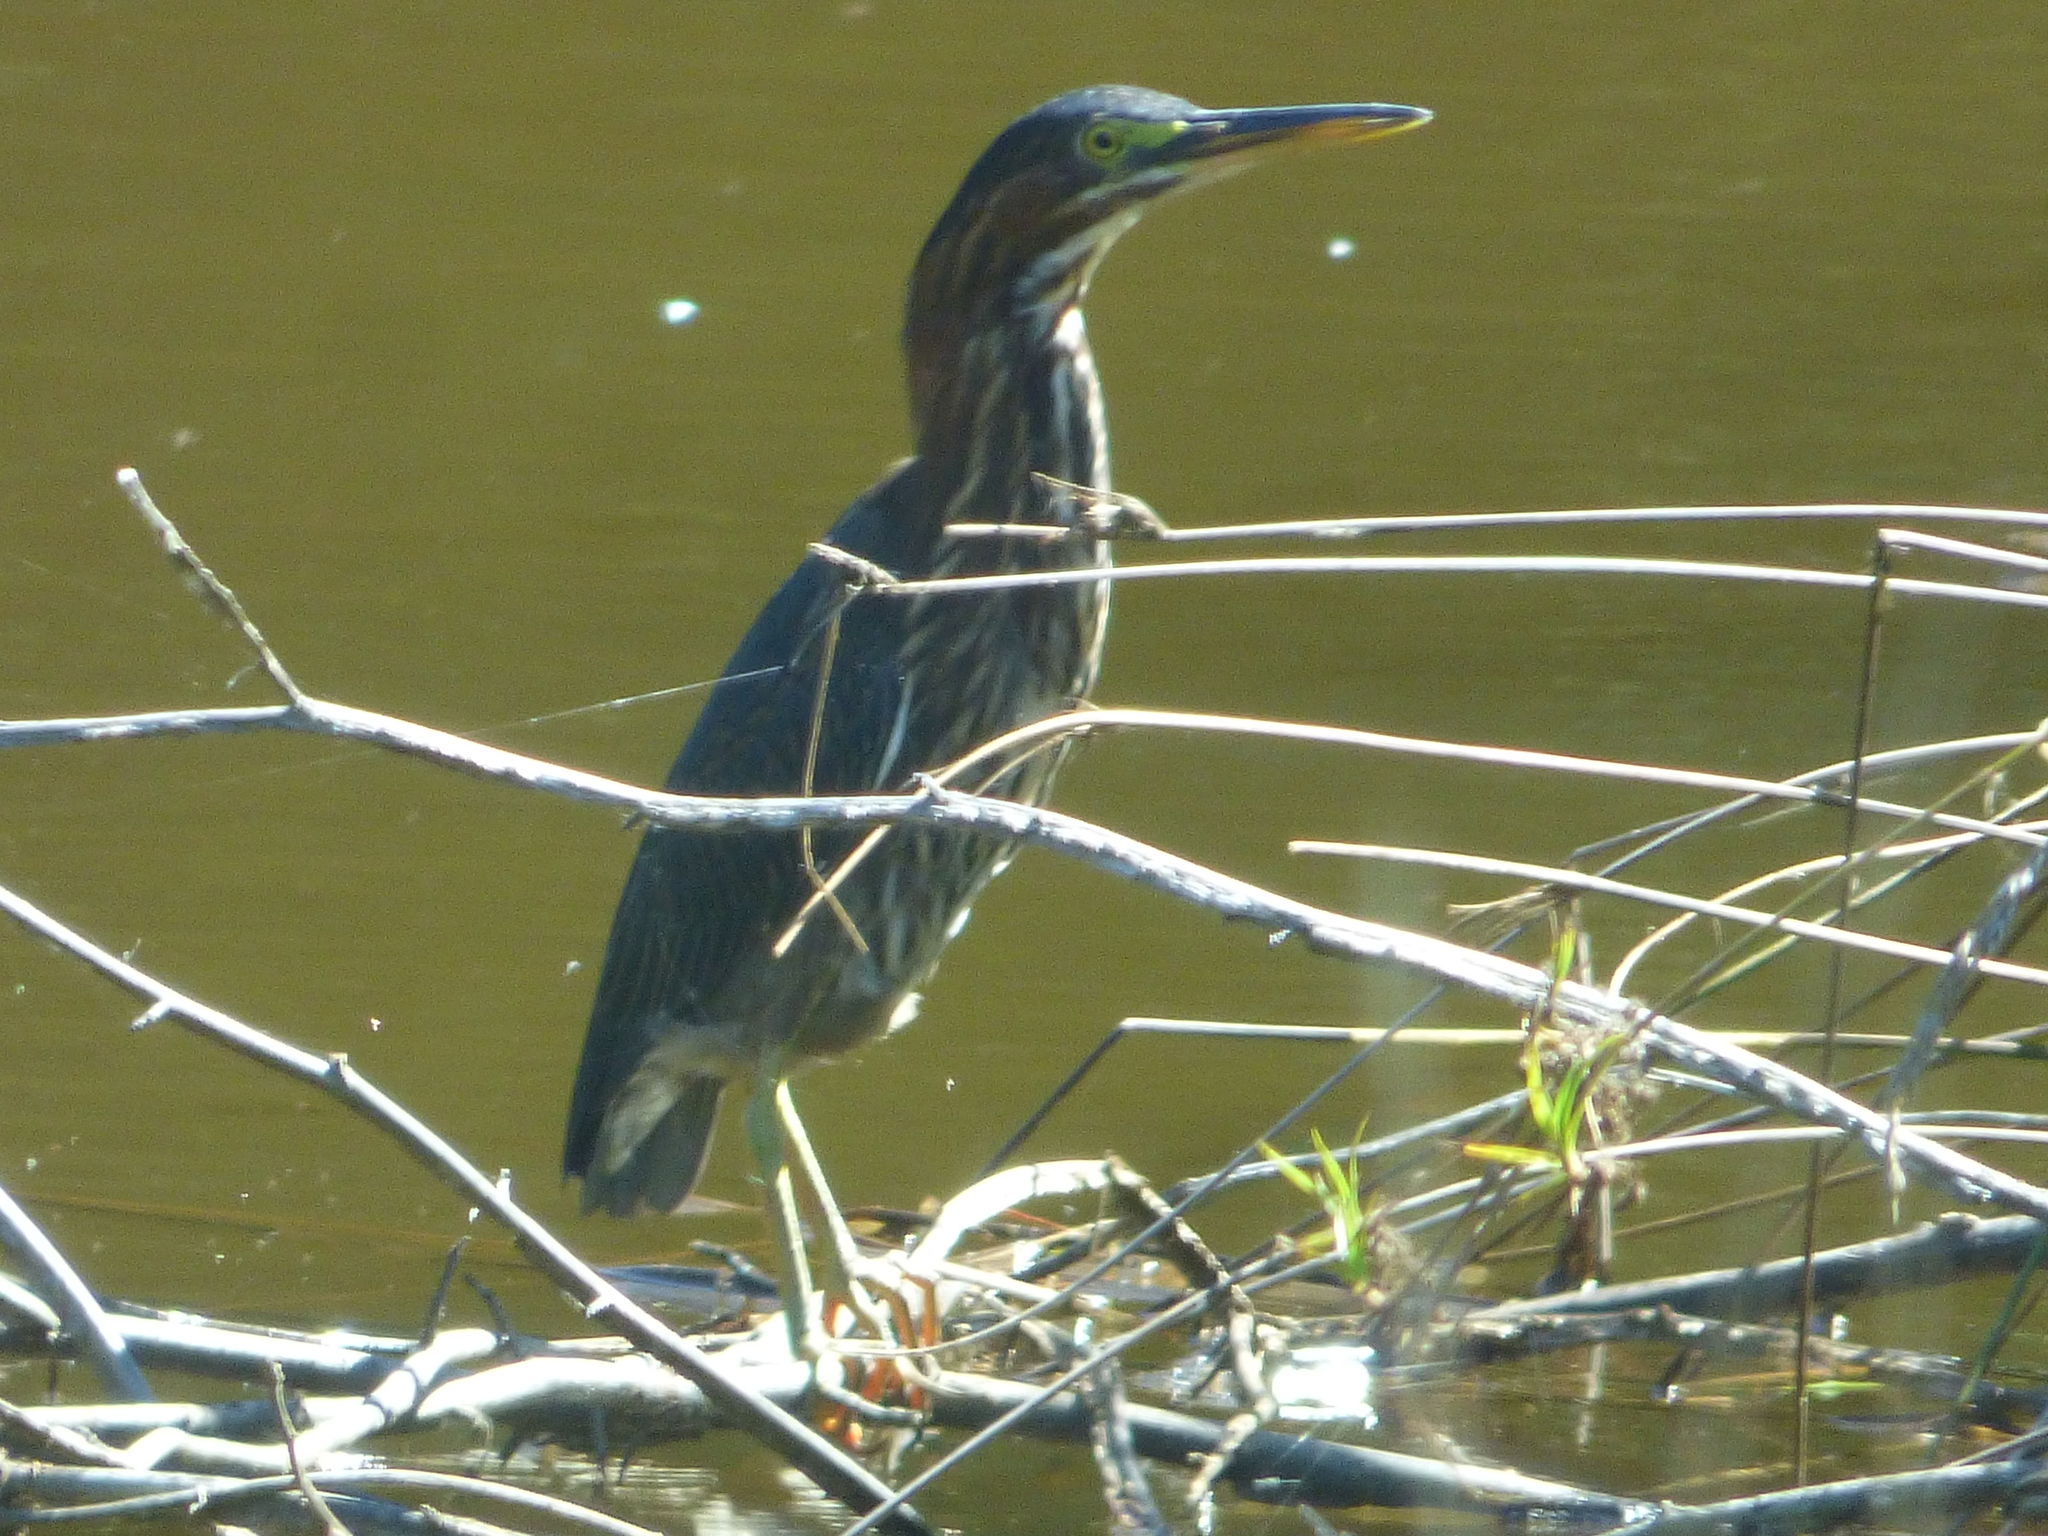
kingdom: Animalia
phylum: Chordata
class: Aves
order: Pelecaniformes
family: Ardeidae
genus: Butorides
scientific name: Butorides virescens
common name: Green heron
